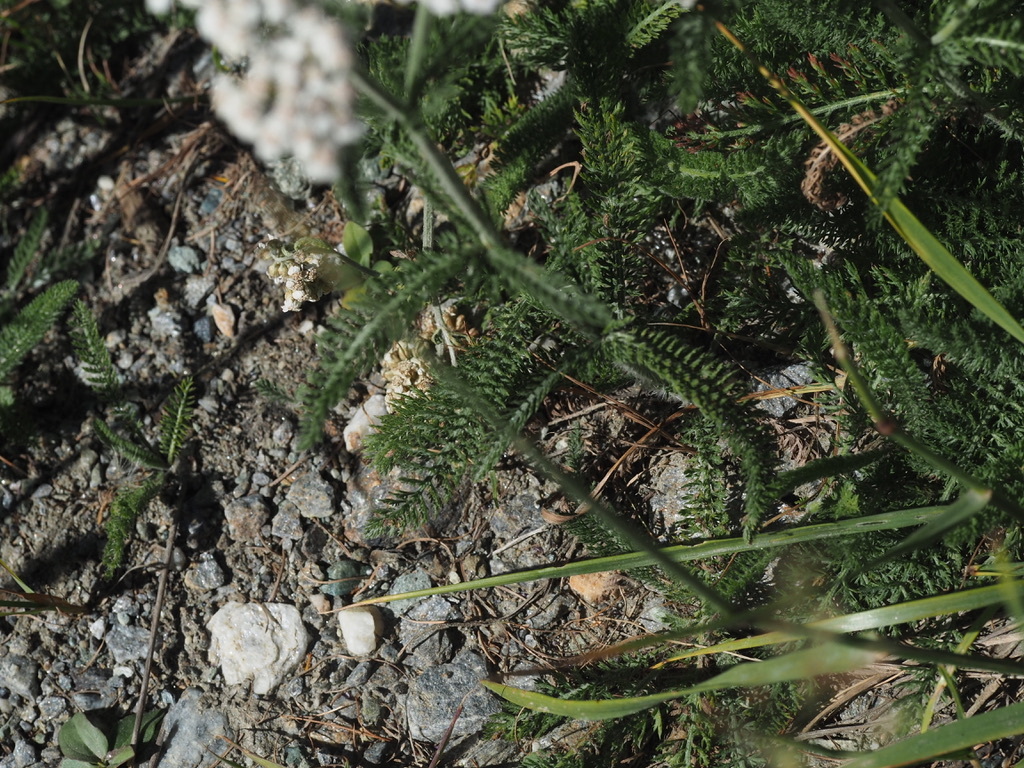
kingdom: Plantae
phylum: Tracheophyta
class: Magnoliopsida
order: Asterales
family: Asteraceae
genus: Achillea
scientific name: Achillea millefolium
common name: Yarrow
